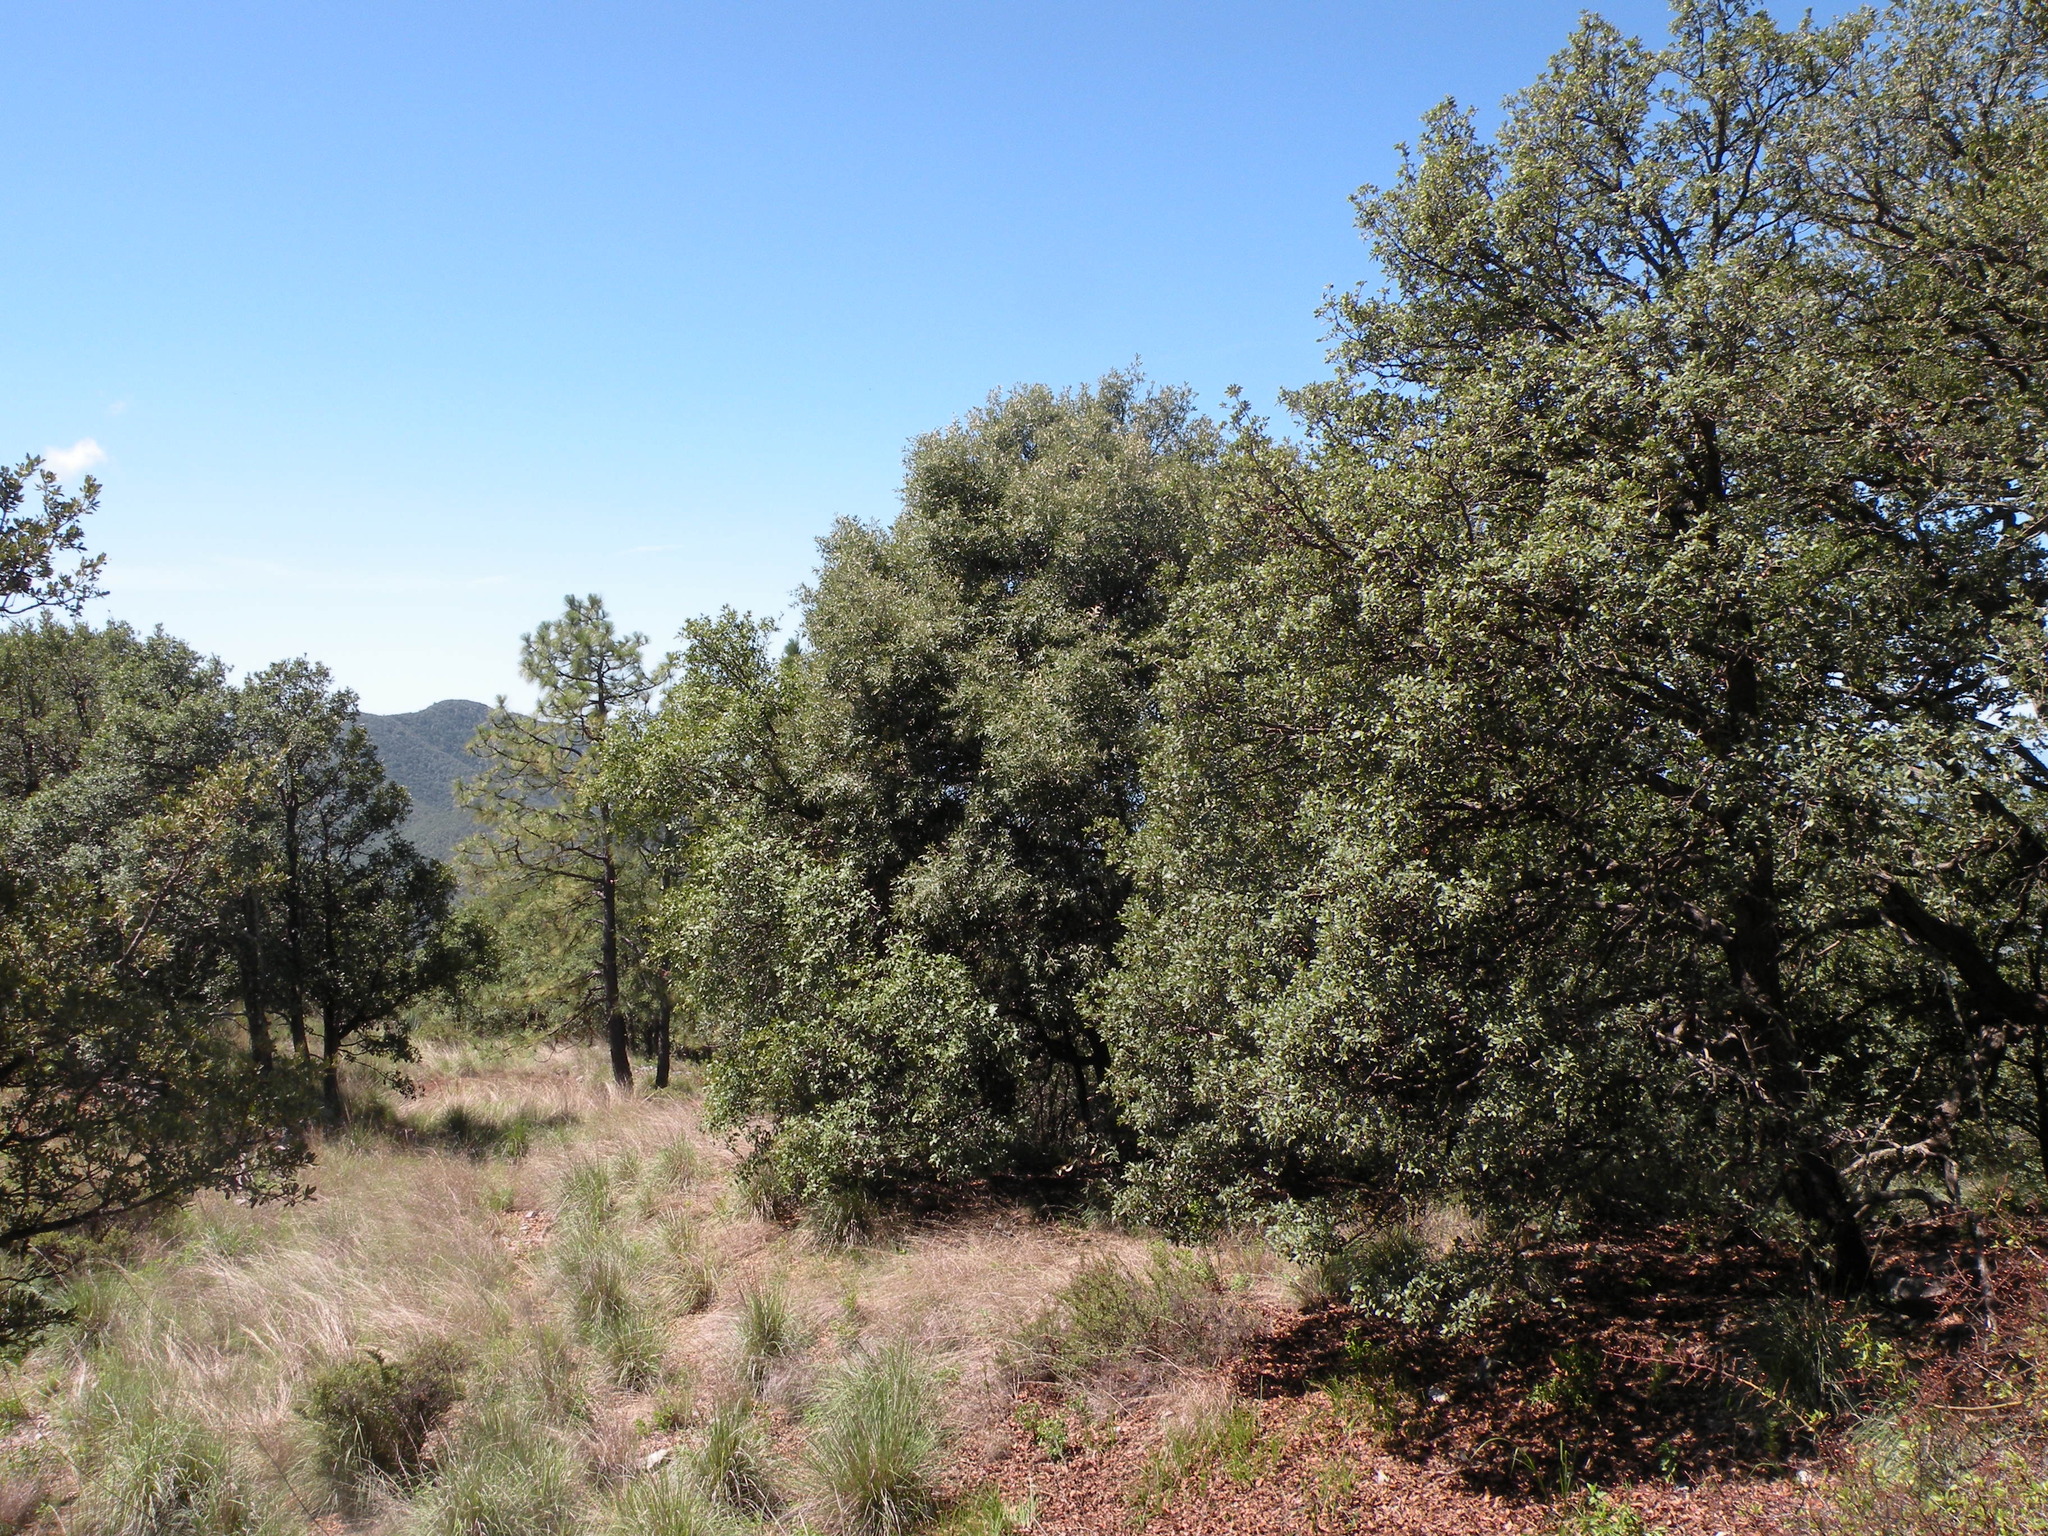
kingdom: Plantae
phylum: Tracheophyta
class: Magnoliopsida
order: Fagales
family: Fagaceae
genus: Quercus
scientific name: Quercus arizonica
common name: Arizona white oak
